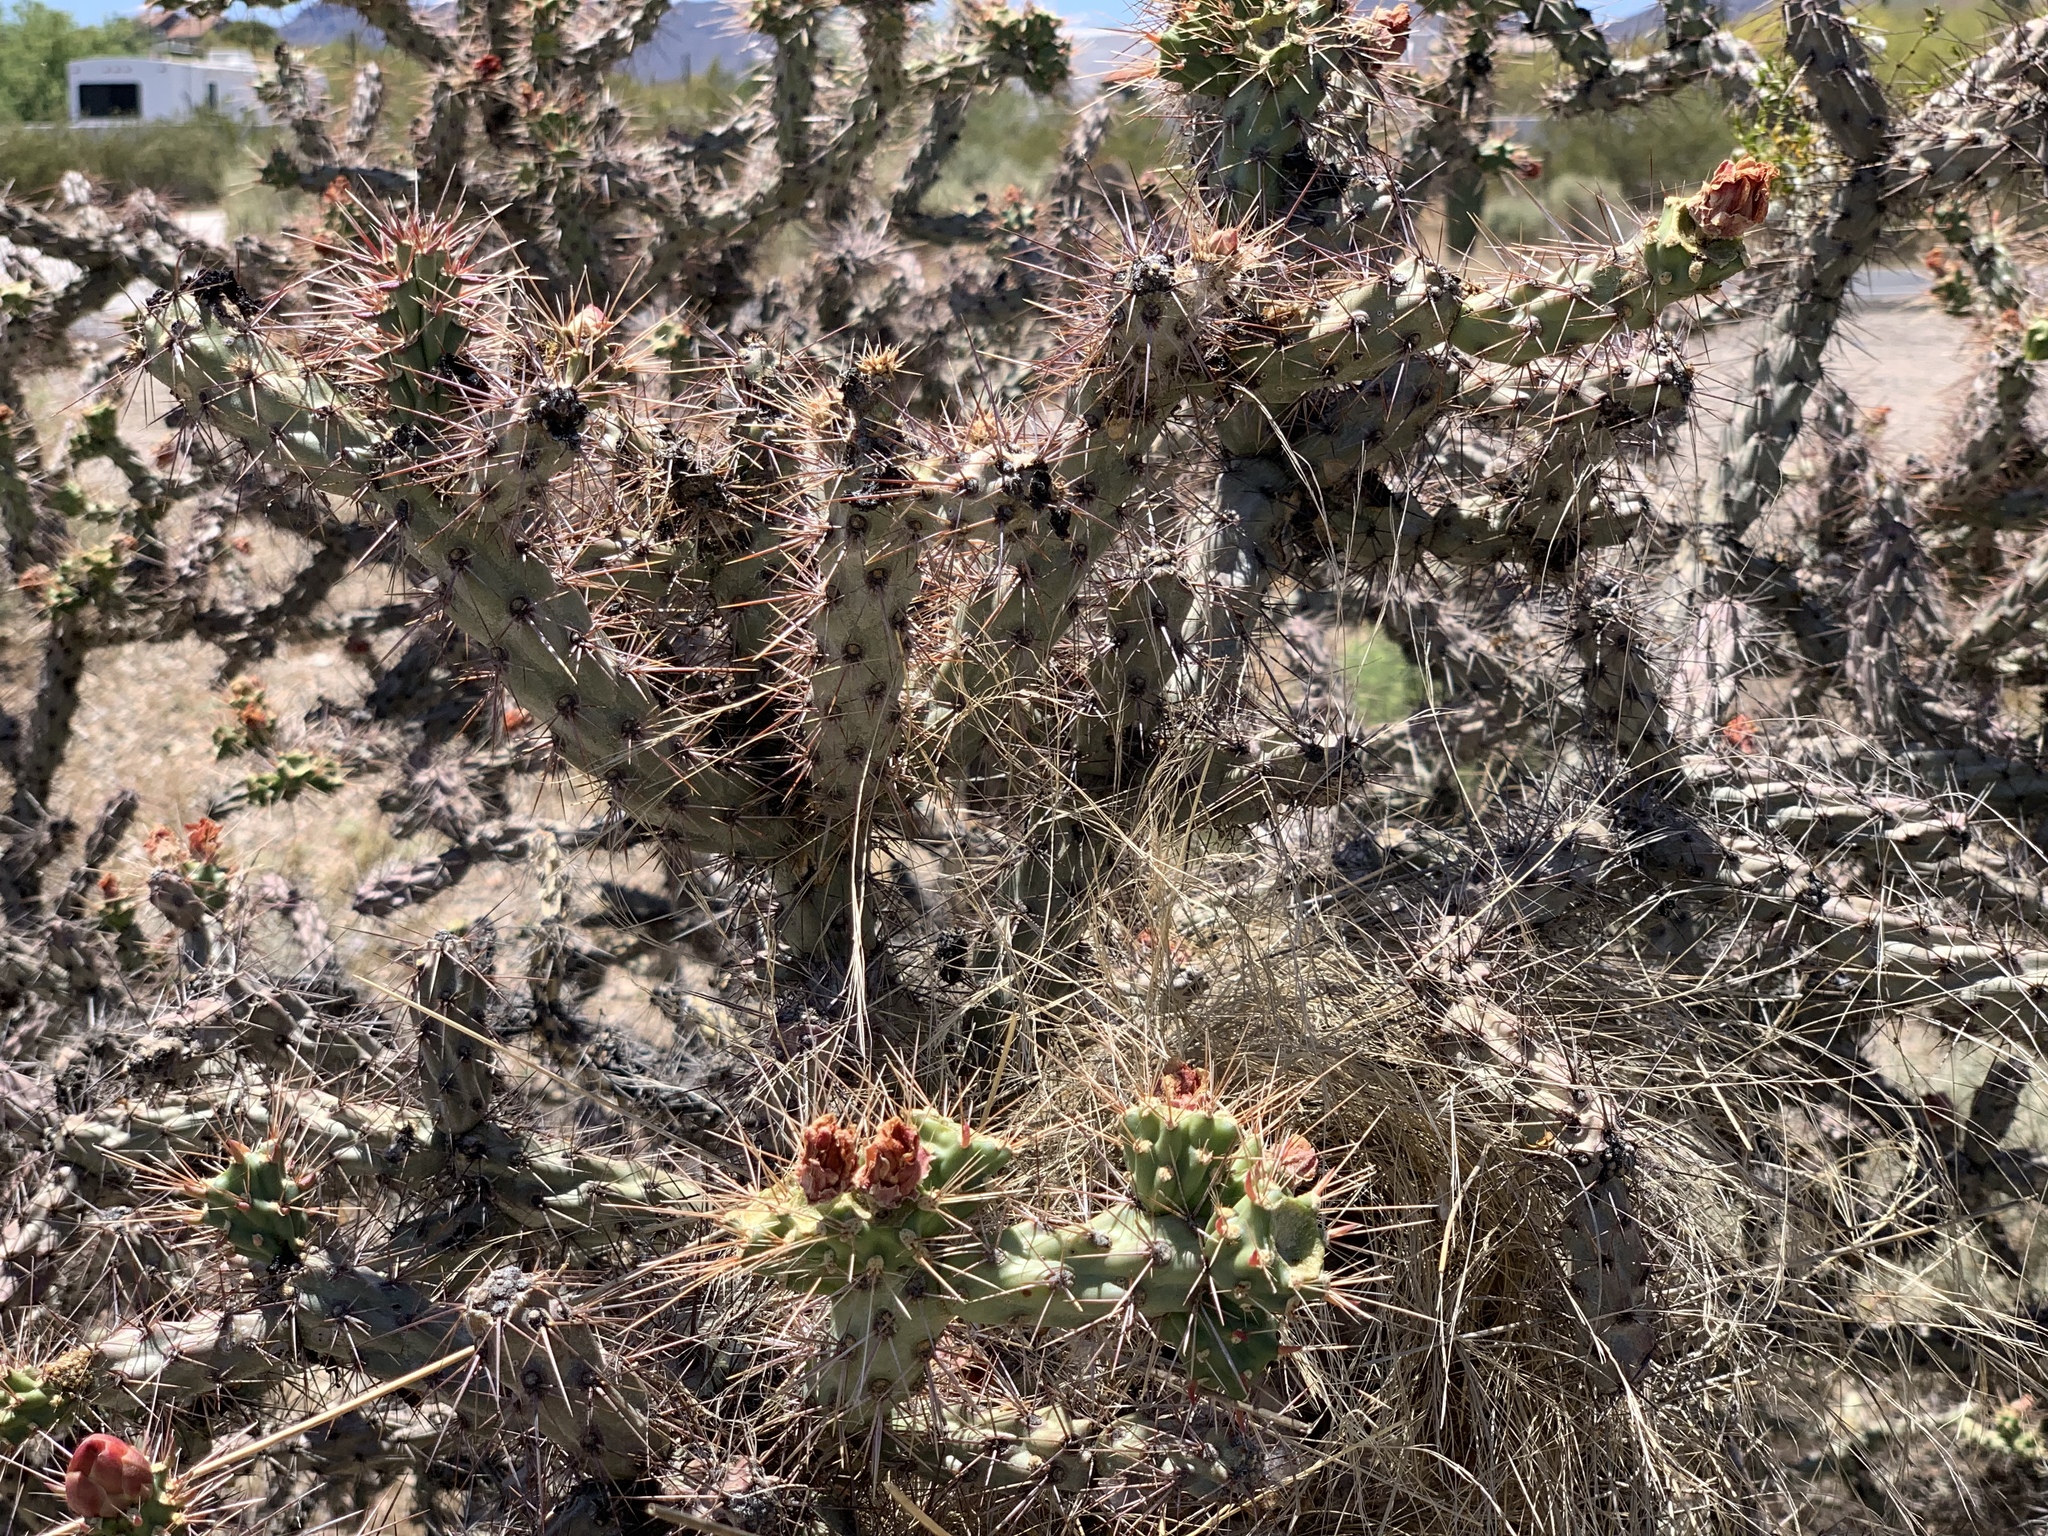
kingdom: Plantae
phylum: Tracheophyta
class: Magnoliopsida
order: Caryophyllales
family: Cactaceae
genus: Cylindropuntia
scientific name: Cylindropuntia acanthocarpa
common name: Buckhorn cholla
